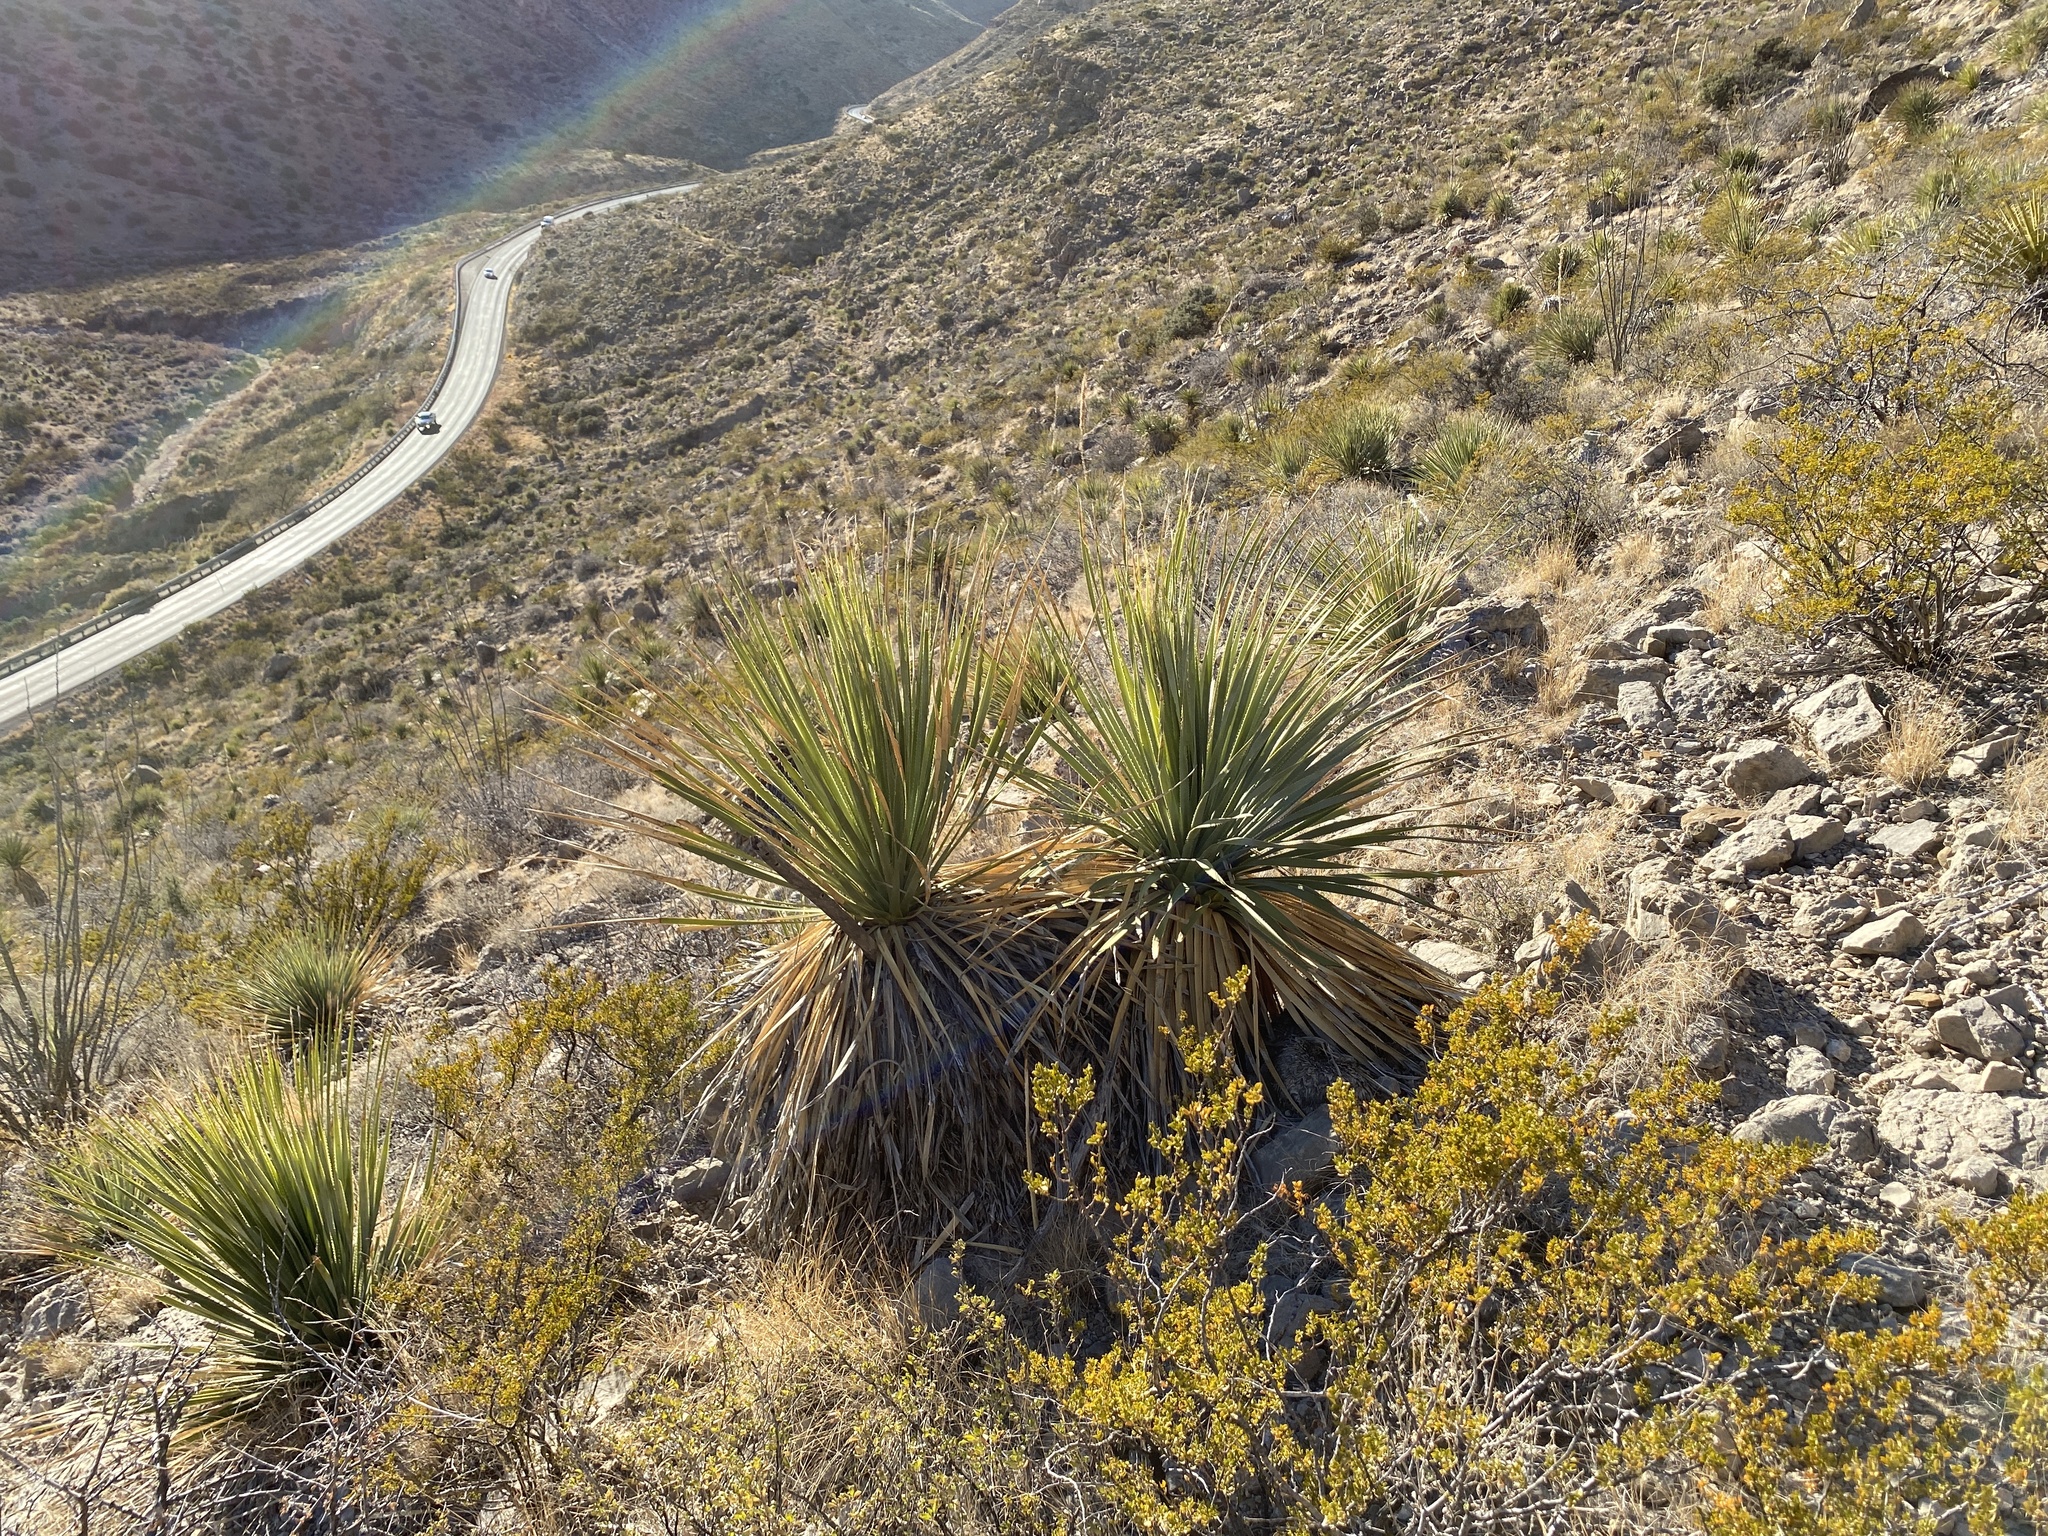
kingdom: Plantae
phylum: Tracheophyta
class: Liliopsida
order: Asparagales
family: Asparagaceae
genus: Dasylirion
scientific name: Dasylirion wheeleri
